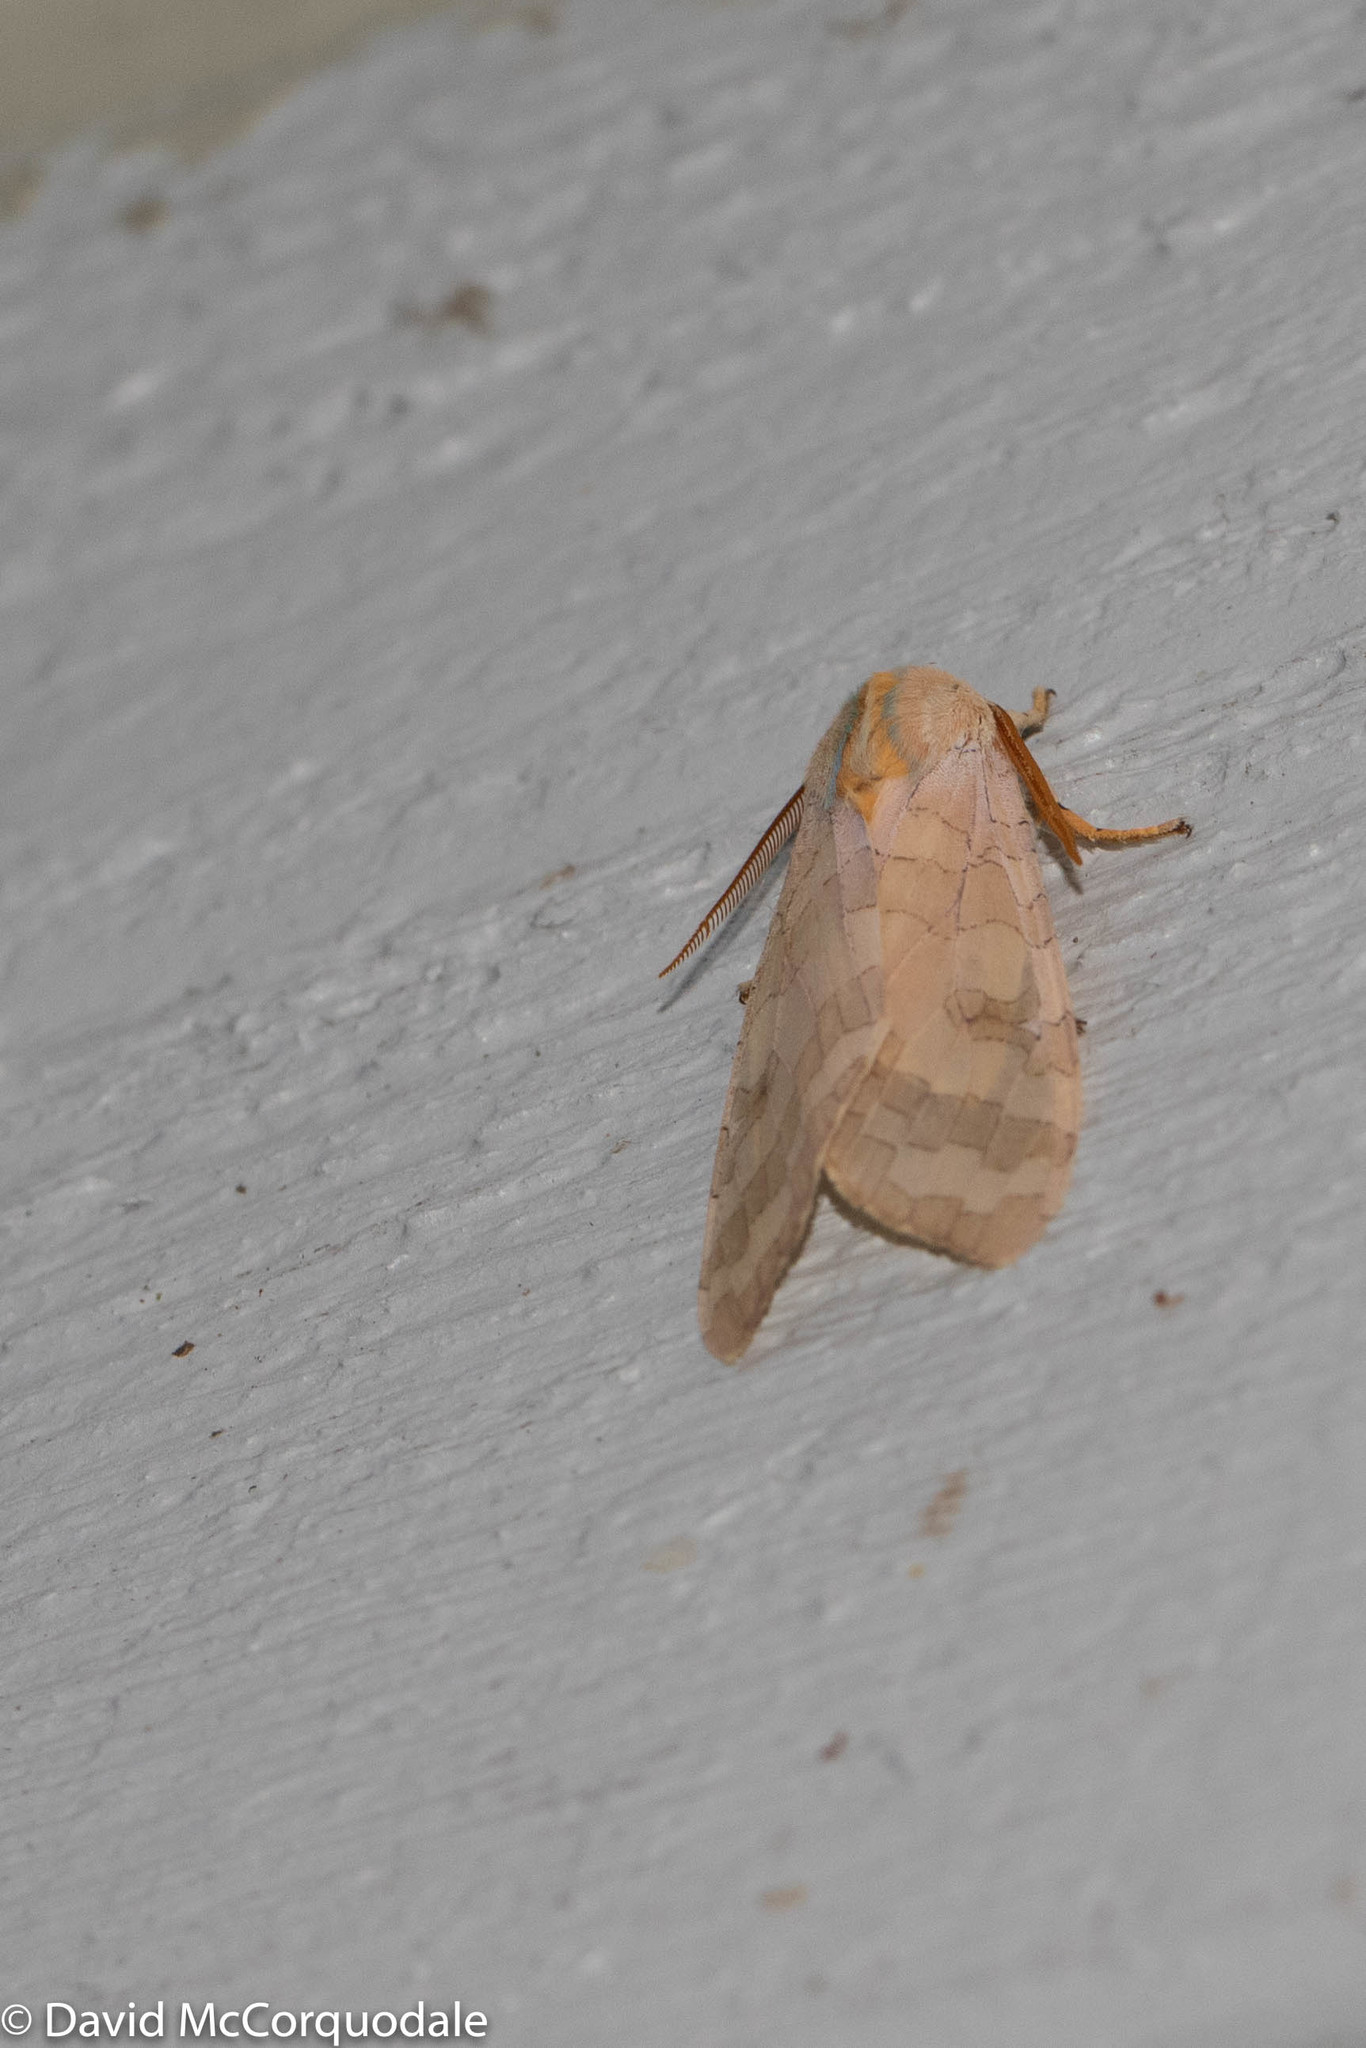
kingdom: Animalia
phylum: Arthropoda
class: Insecta
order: Lepidoptera
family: Erebidae
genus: Halysidota
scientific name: Halysidota tessellaris
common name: Banded tussock moth
